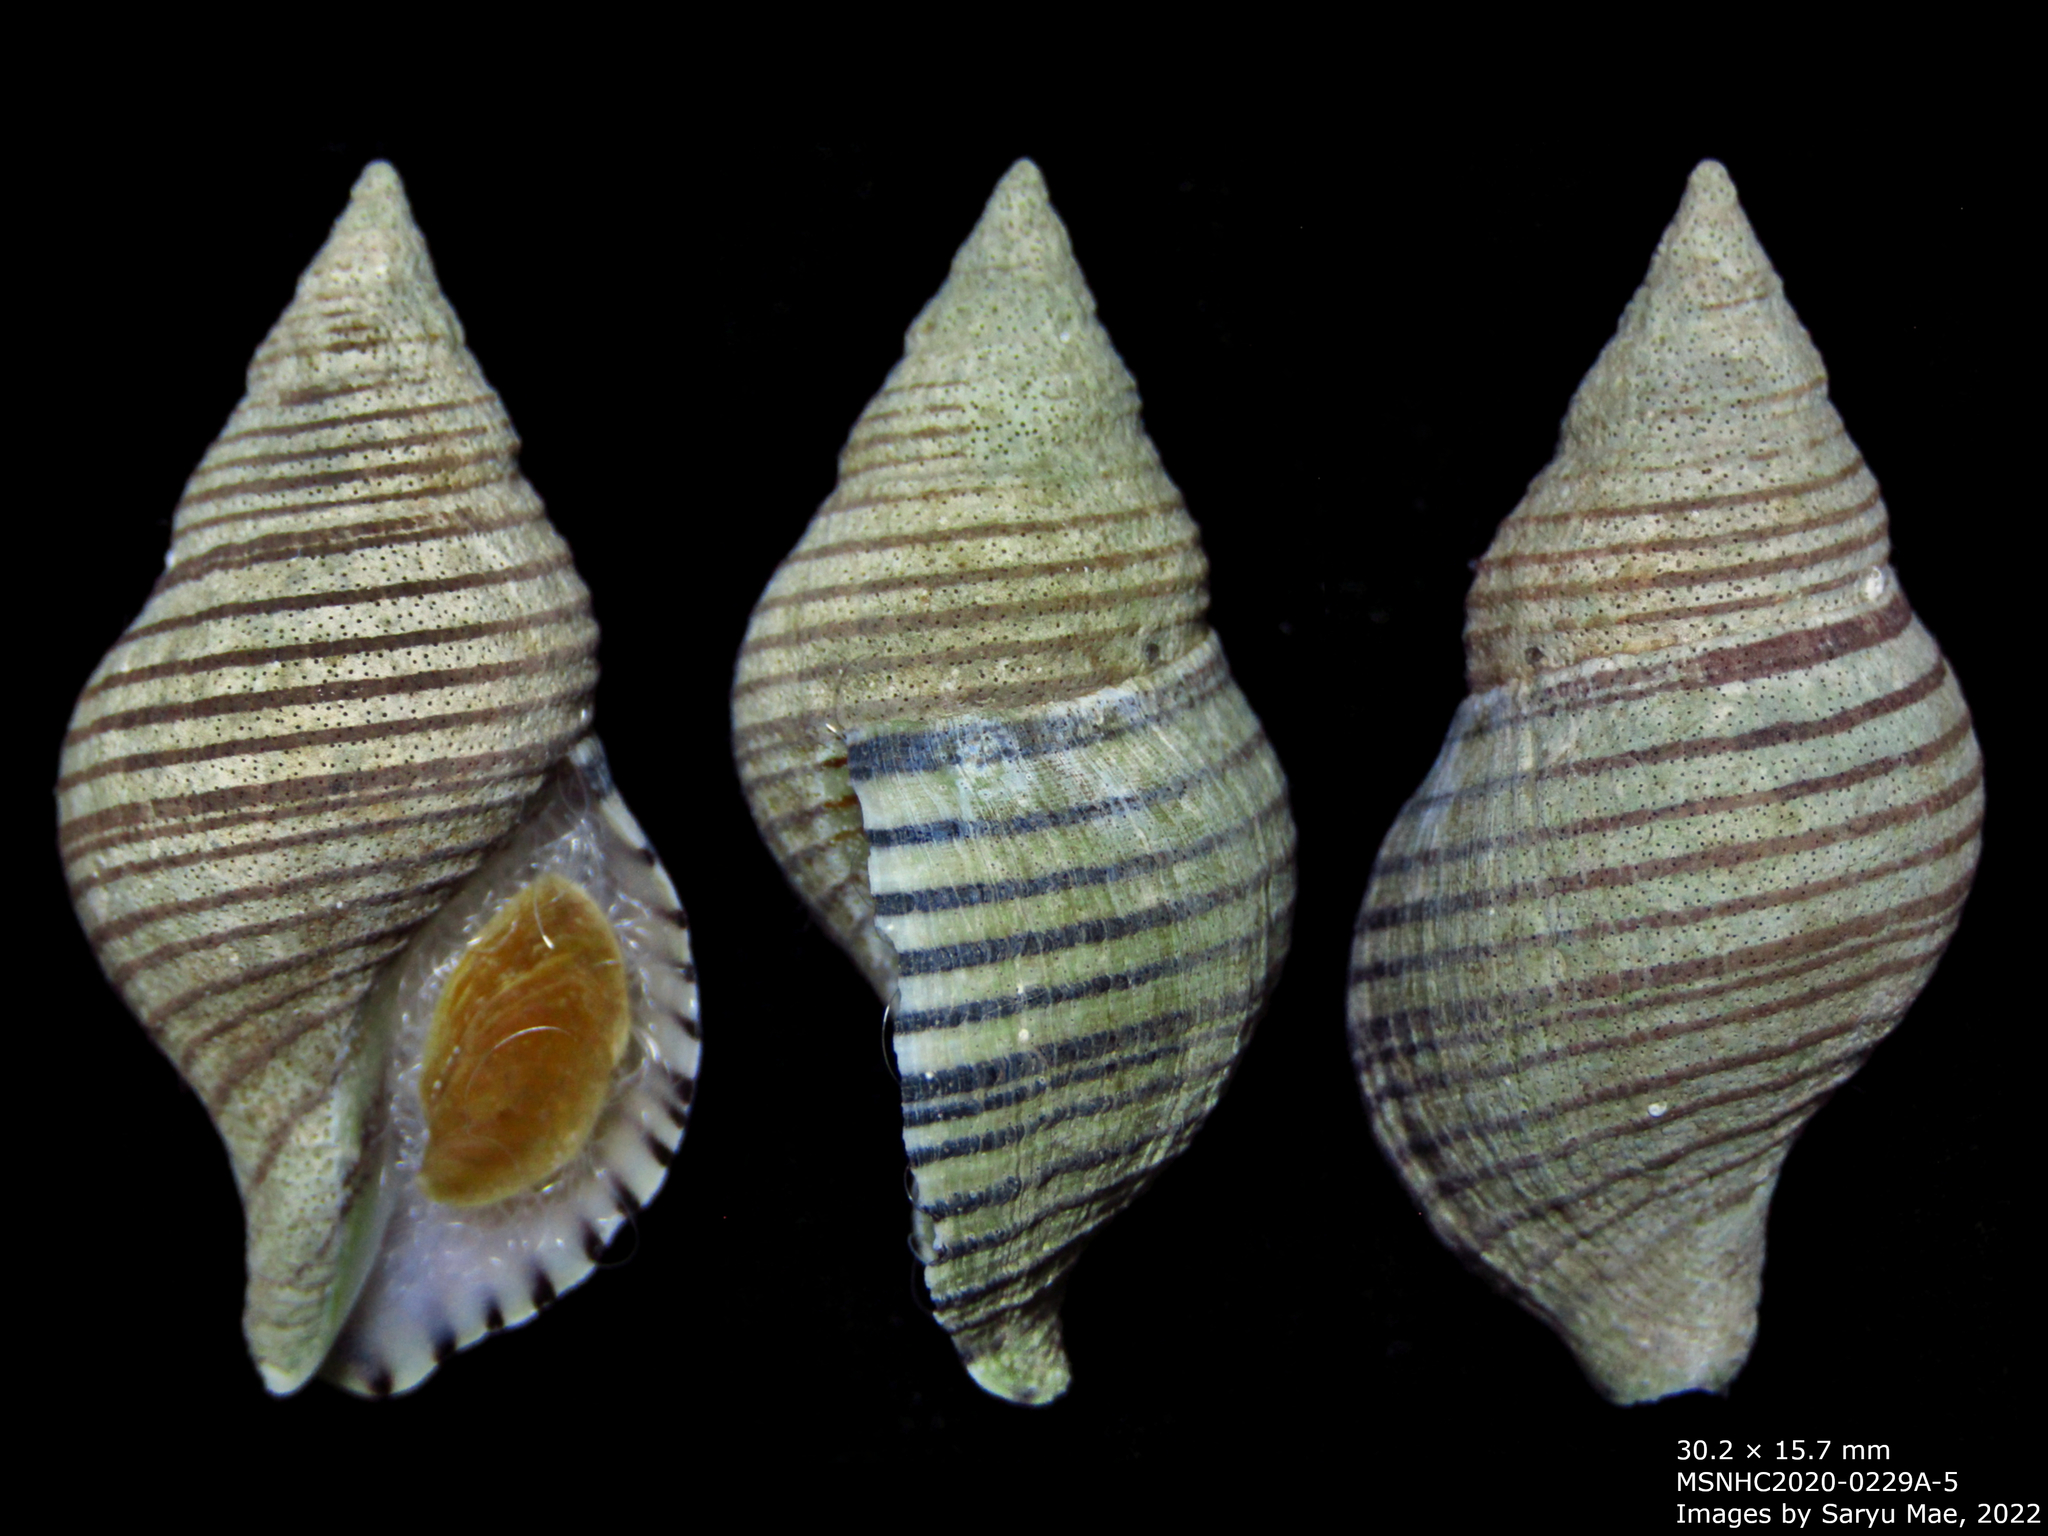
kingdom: Animalia
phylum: Mollusca
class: Gastropoda
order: Neogastropoda
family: Tudiclidae
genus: Buccinulum
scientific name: Buccinulum linea
